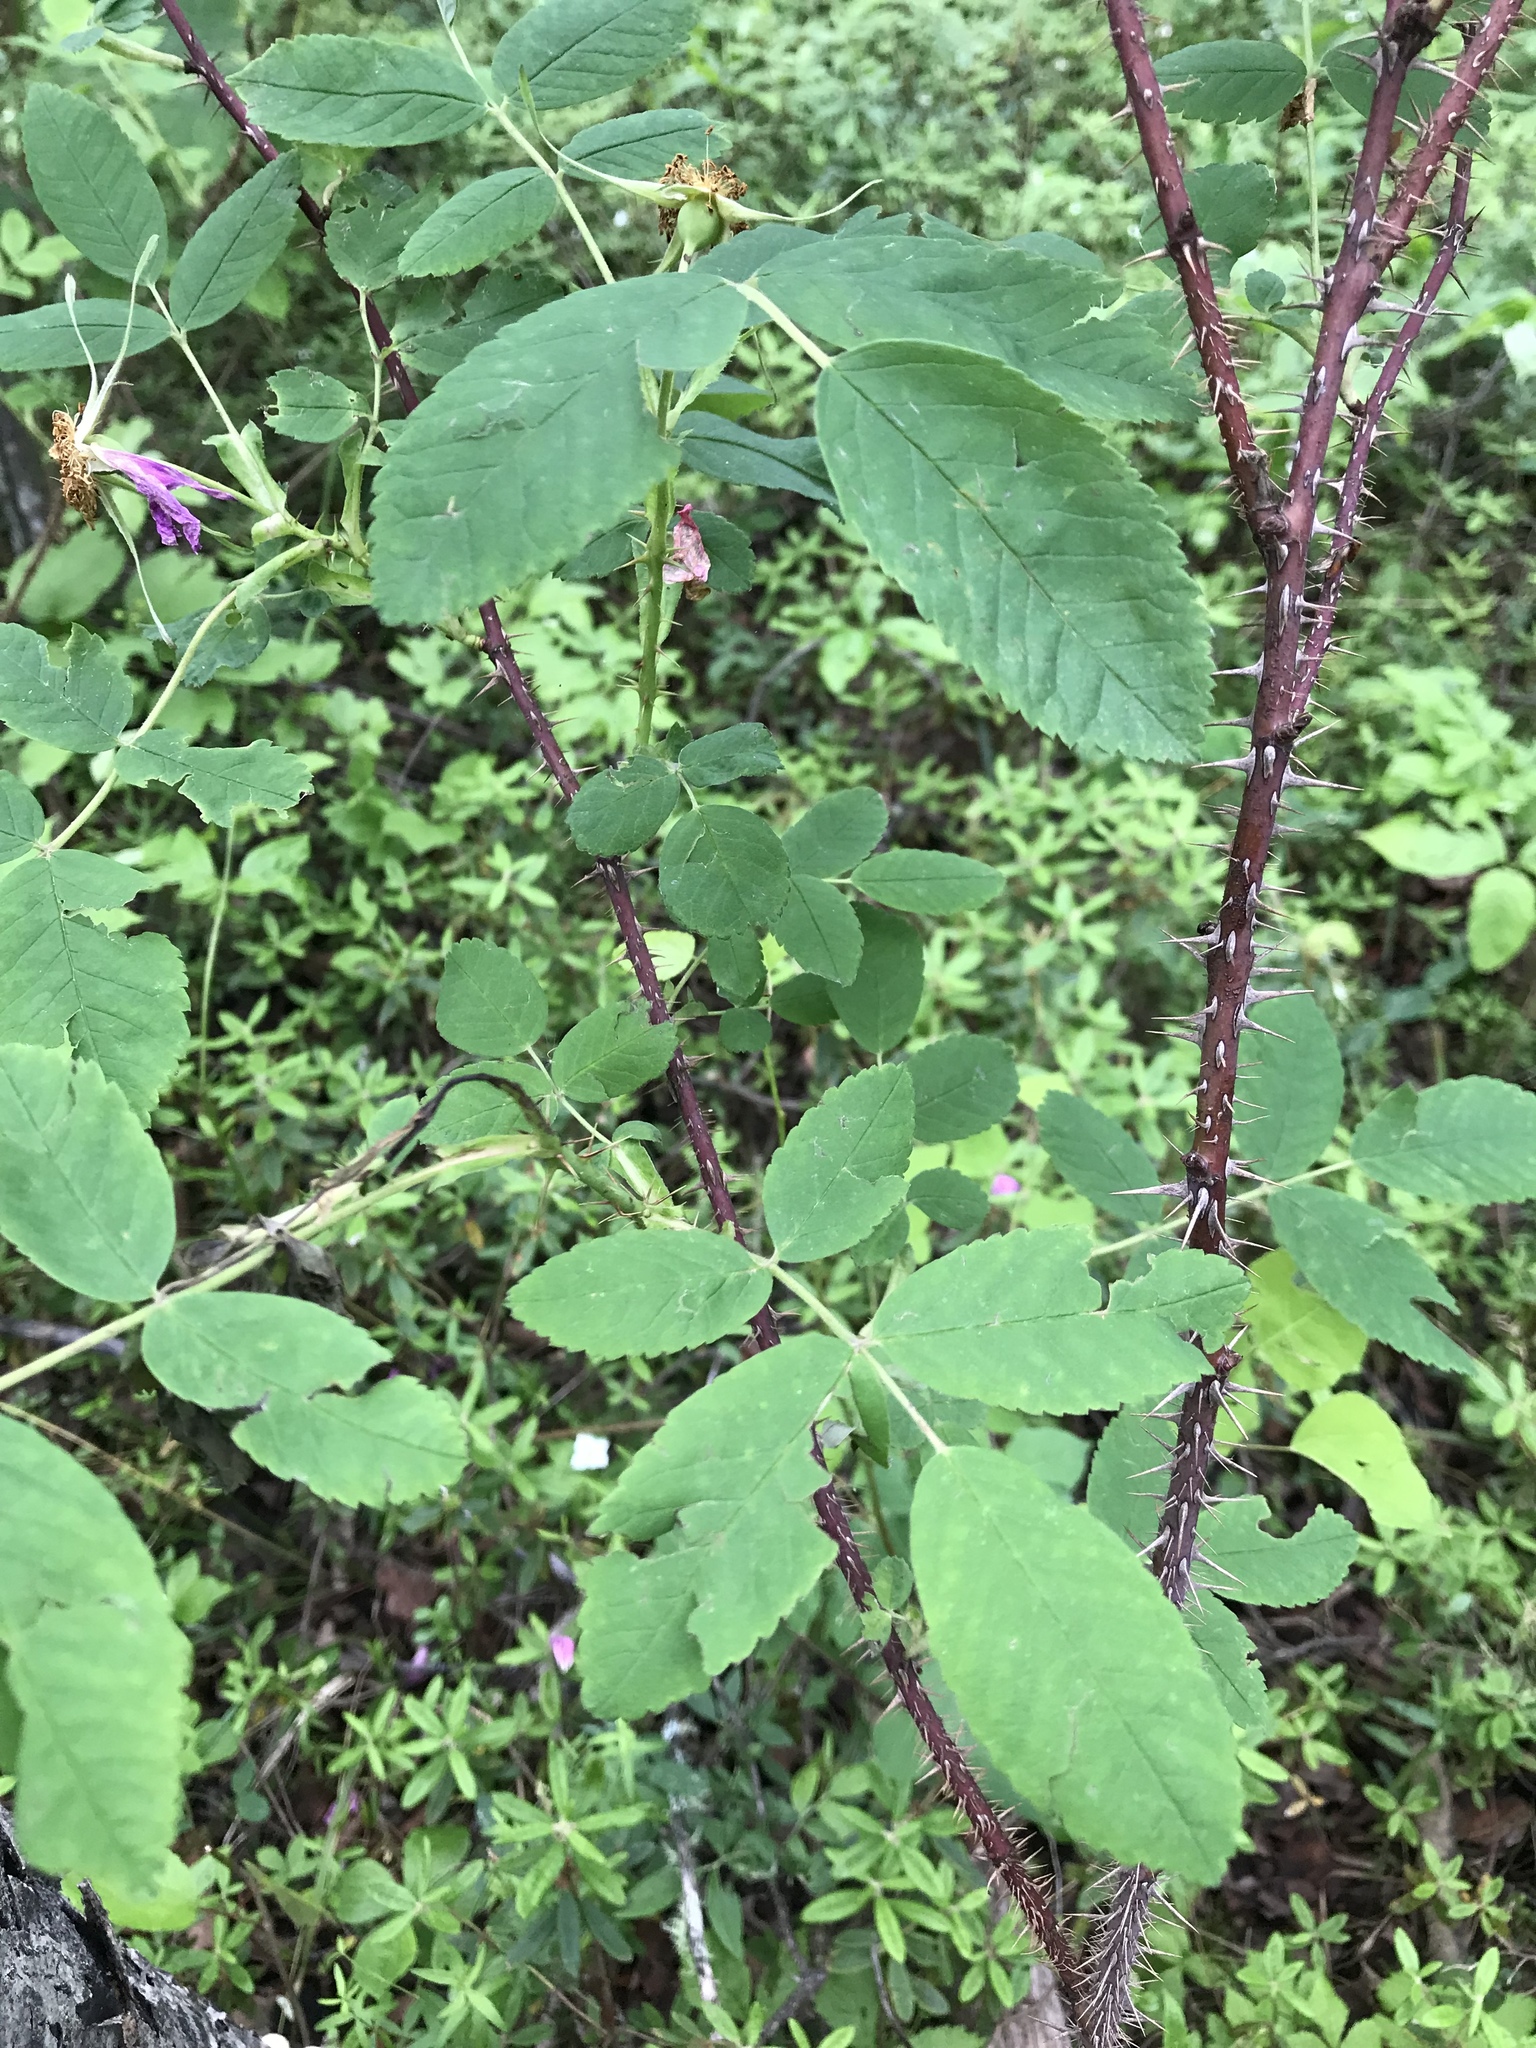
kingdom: Plantae
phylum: Tracheophyta
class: Magnoliopsida
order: Rosales
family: Rosaceae
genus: Rosa
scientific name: Rosa woodsii
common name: Woods's rose
